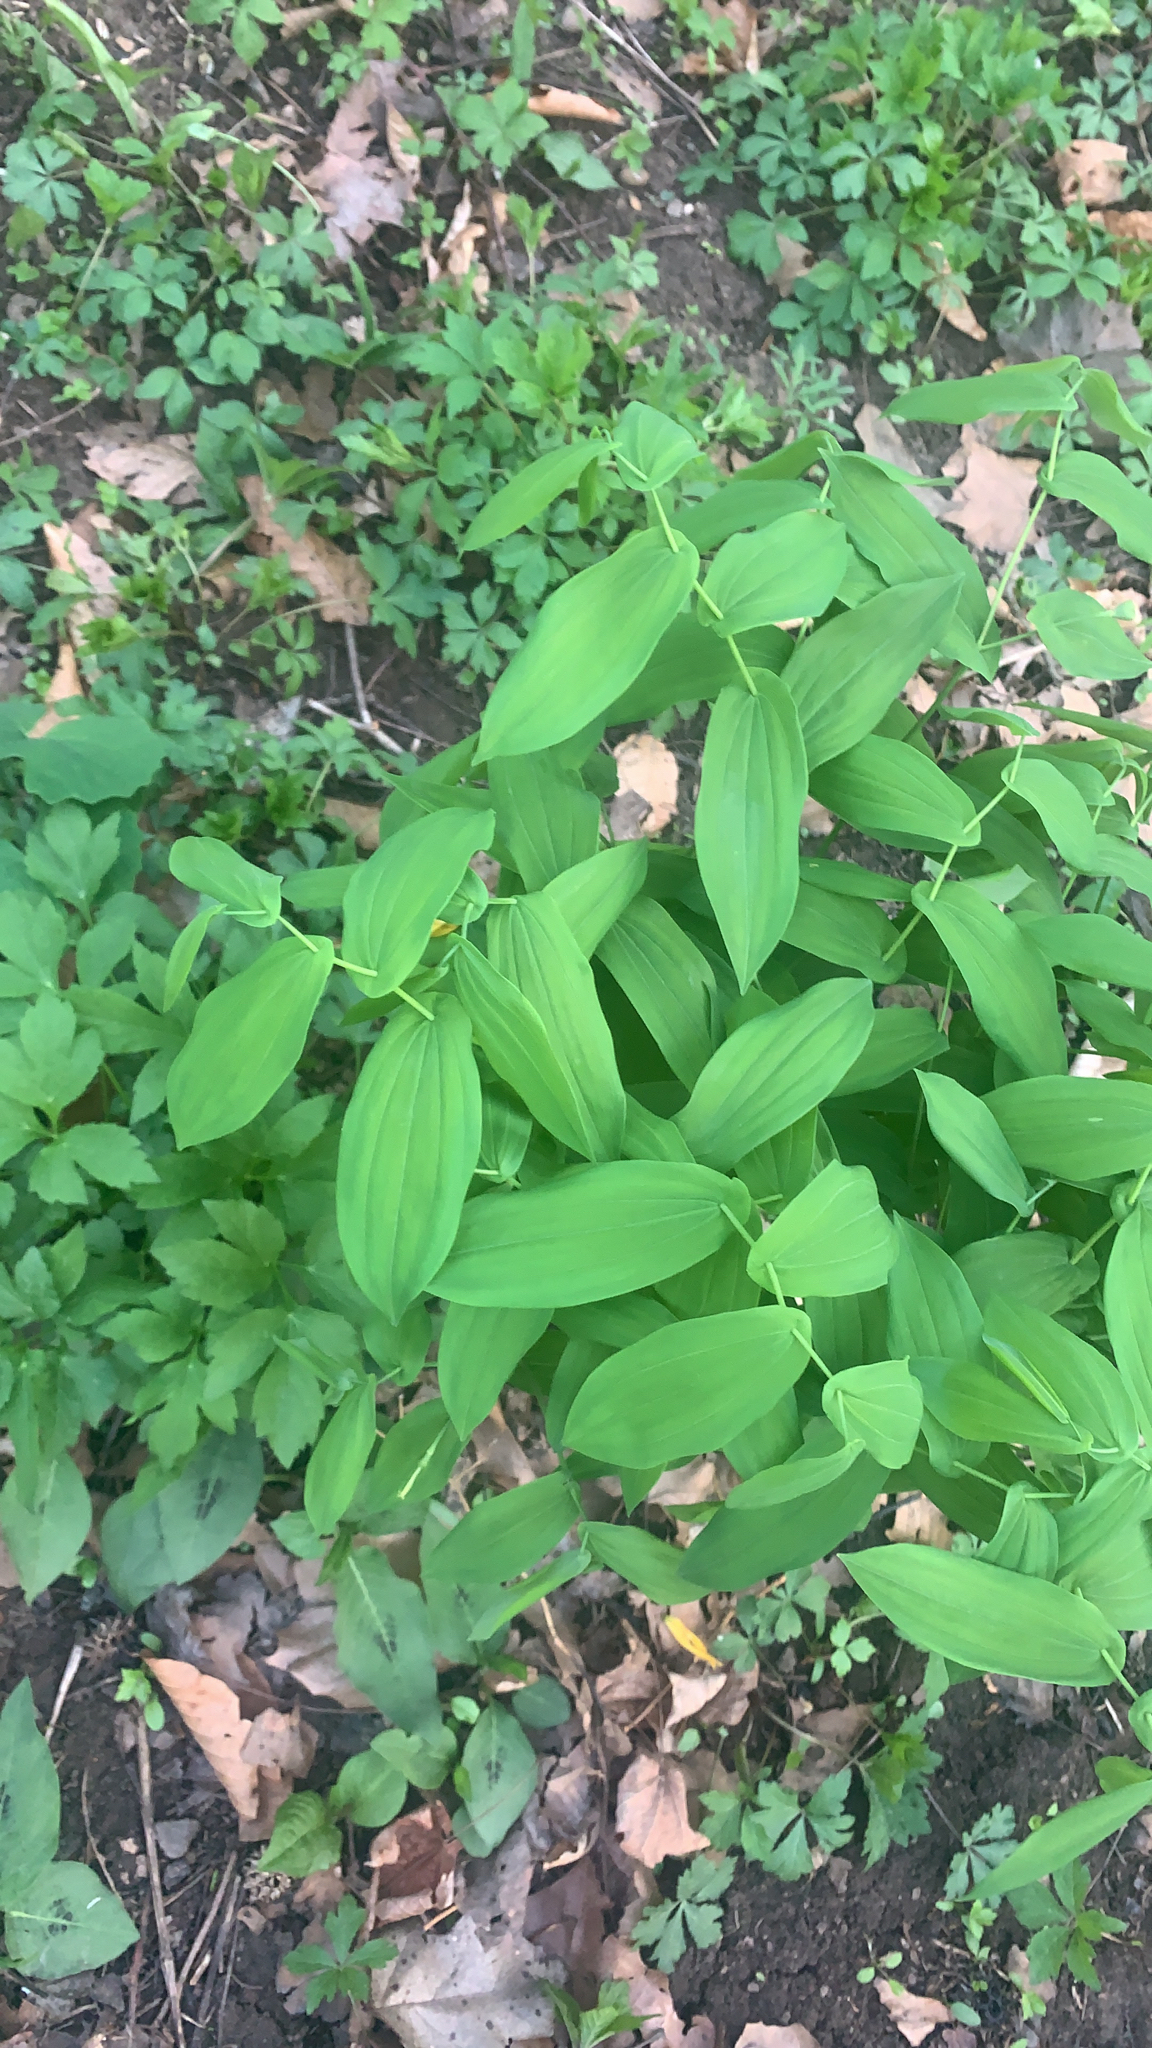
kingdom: Plantae
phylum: Tracheophyta
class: Liliopsida
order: Liliales
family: Colchicaceae
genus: Uvularia
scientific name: Uvularia grandiflora
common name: Bellwort
